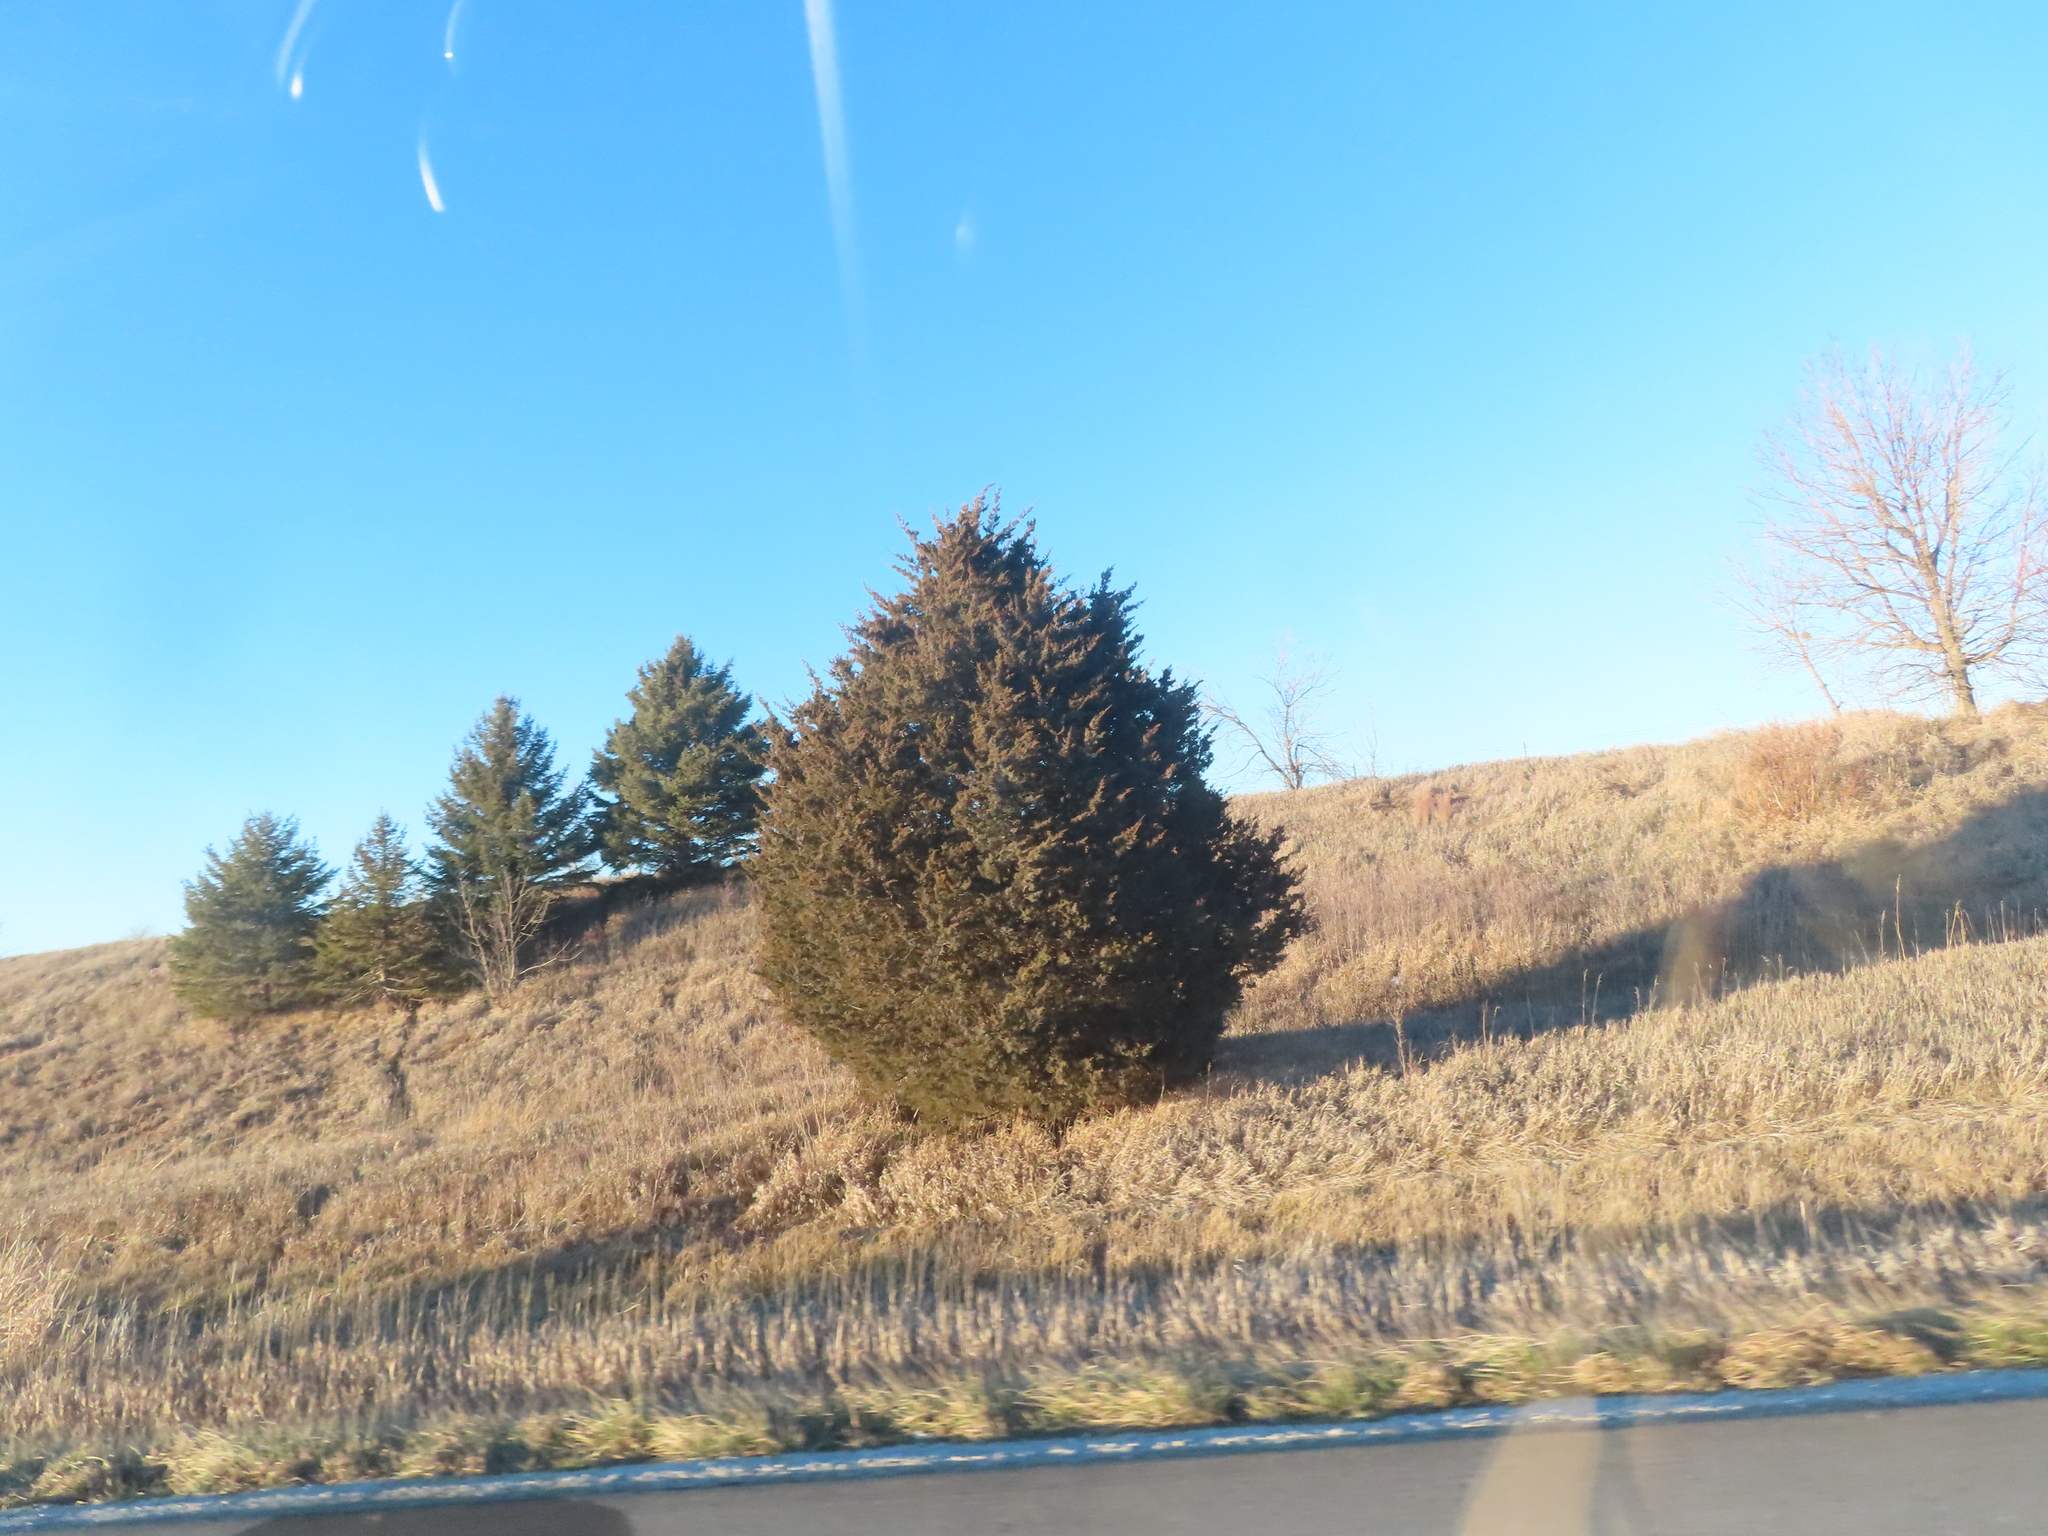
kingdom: Plantae
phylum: Tracheophyta
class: Pinopsida
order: Pinales
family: Cupressaceae
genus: Juniperus
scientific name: Juniperus virginiana
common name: Red juniper
